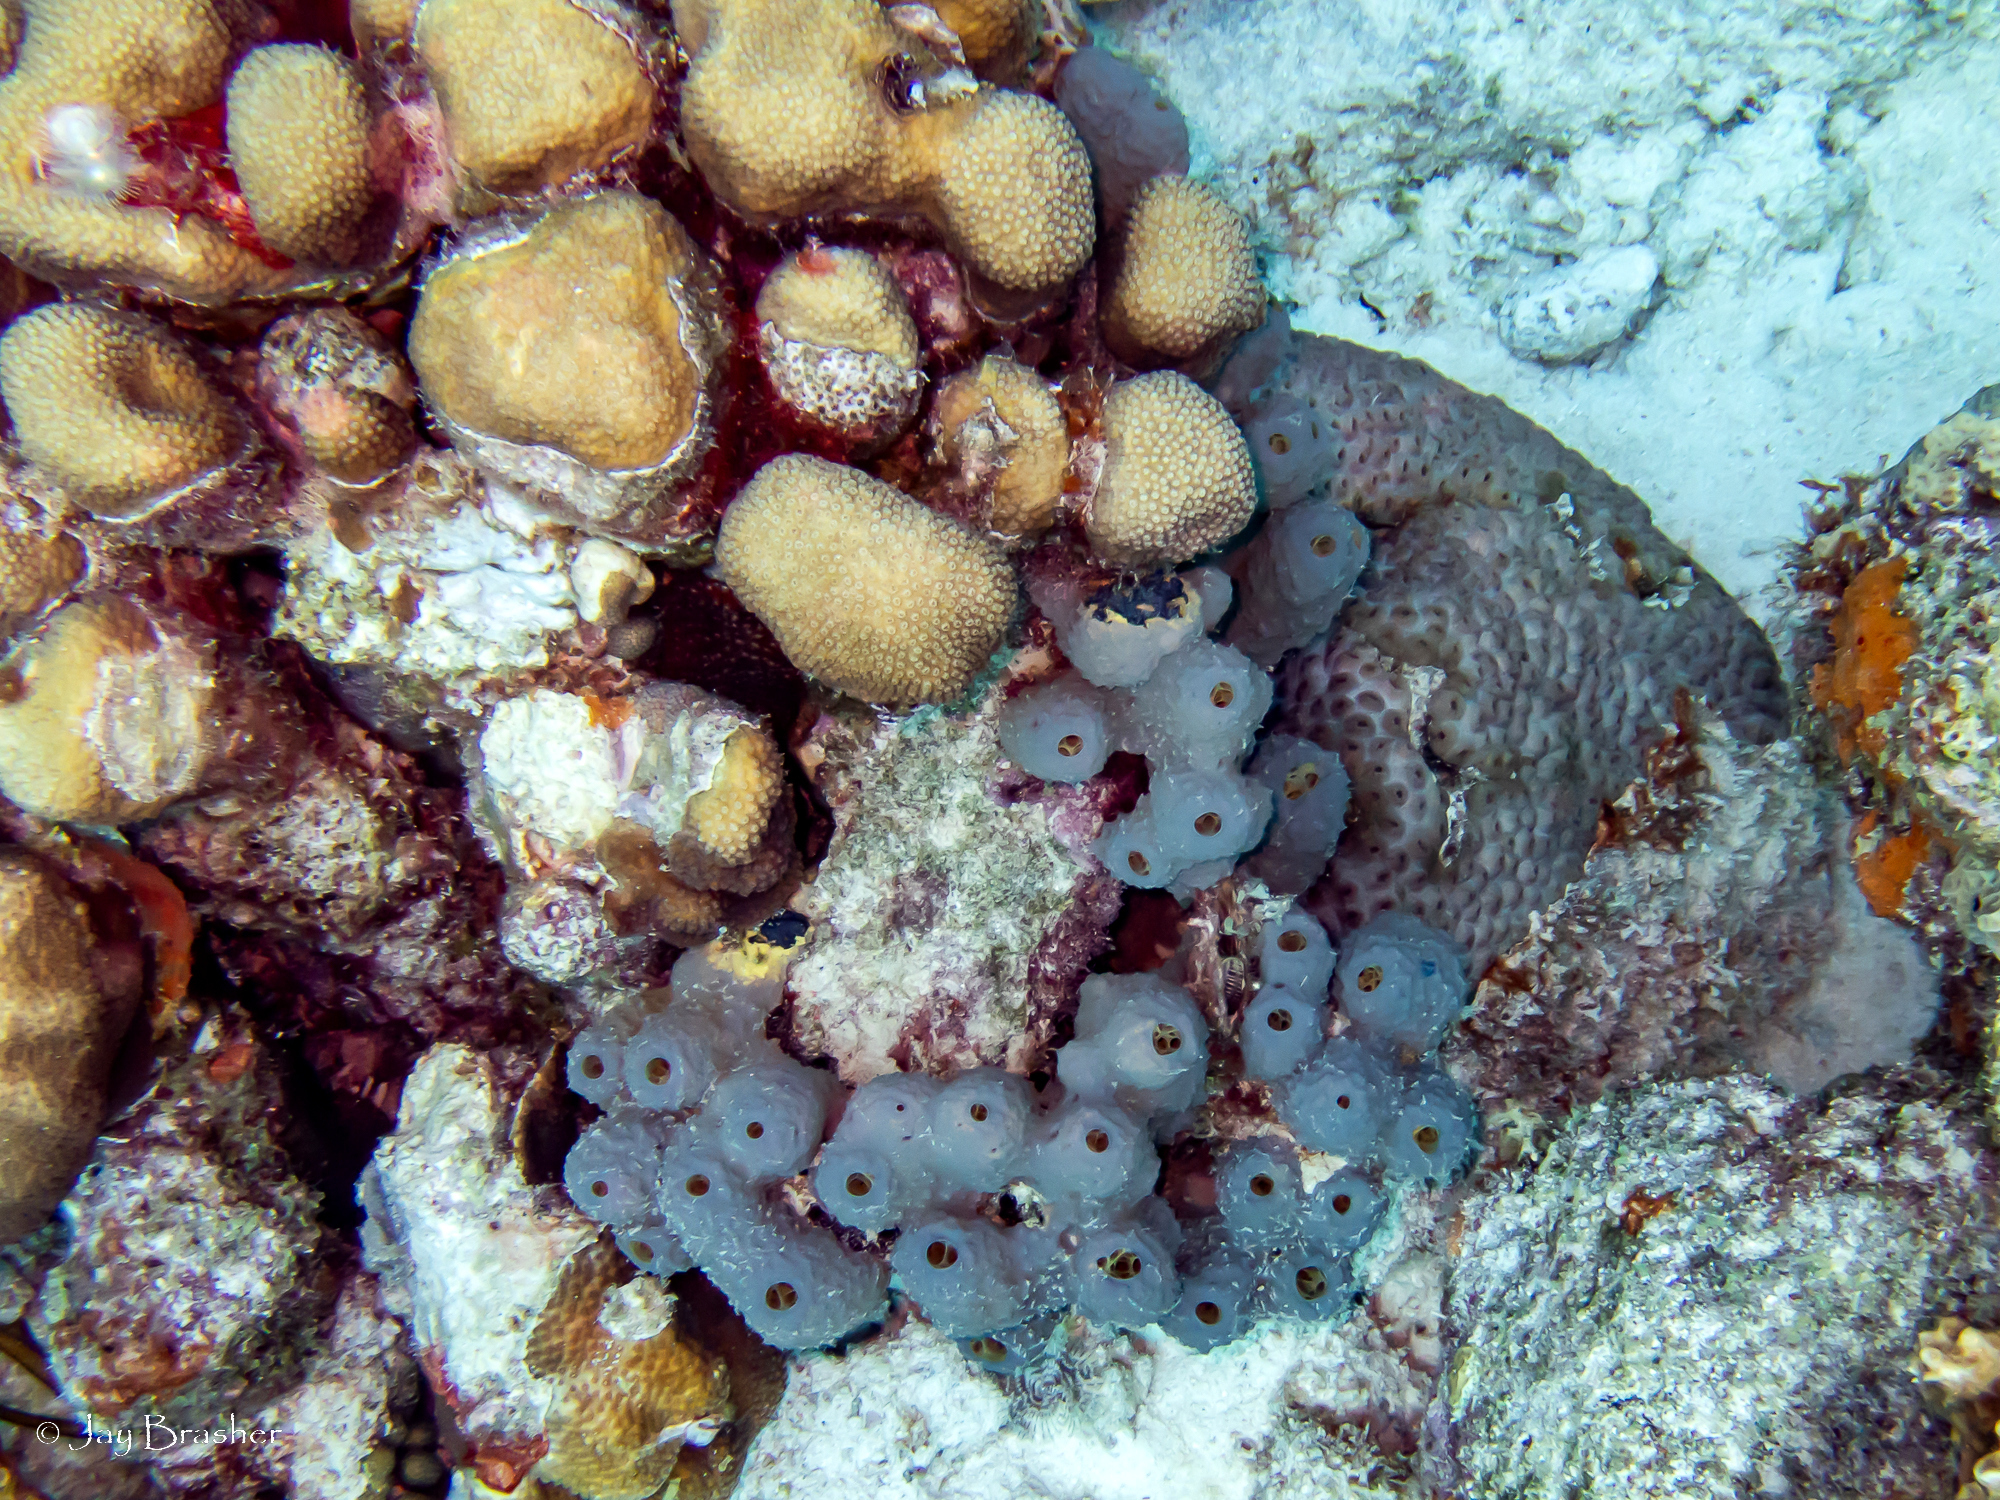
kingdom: Animalia
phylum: Porifera
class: Demospongiae
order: Verongiida
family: Aplysinidae
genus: Aiolochroia
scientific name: Aiolochroia crassa
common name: Branching tube sponge
